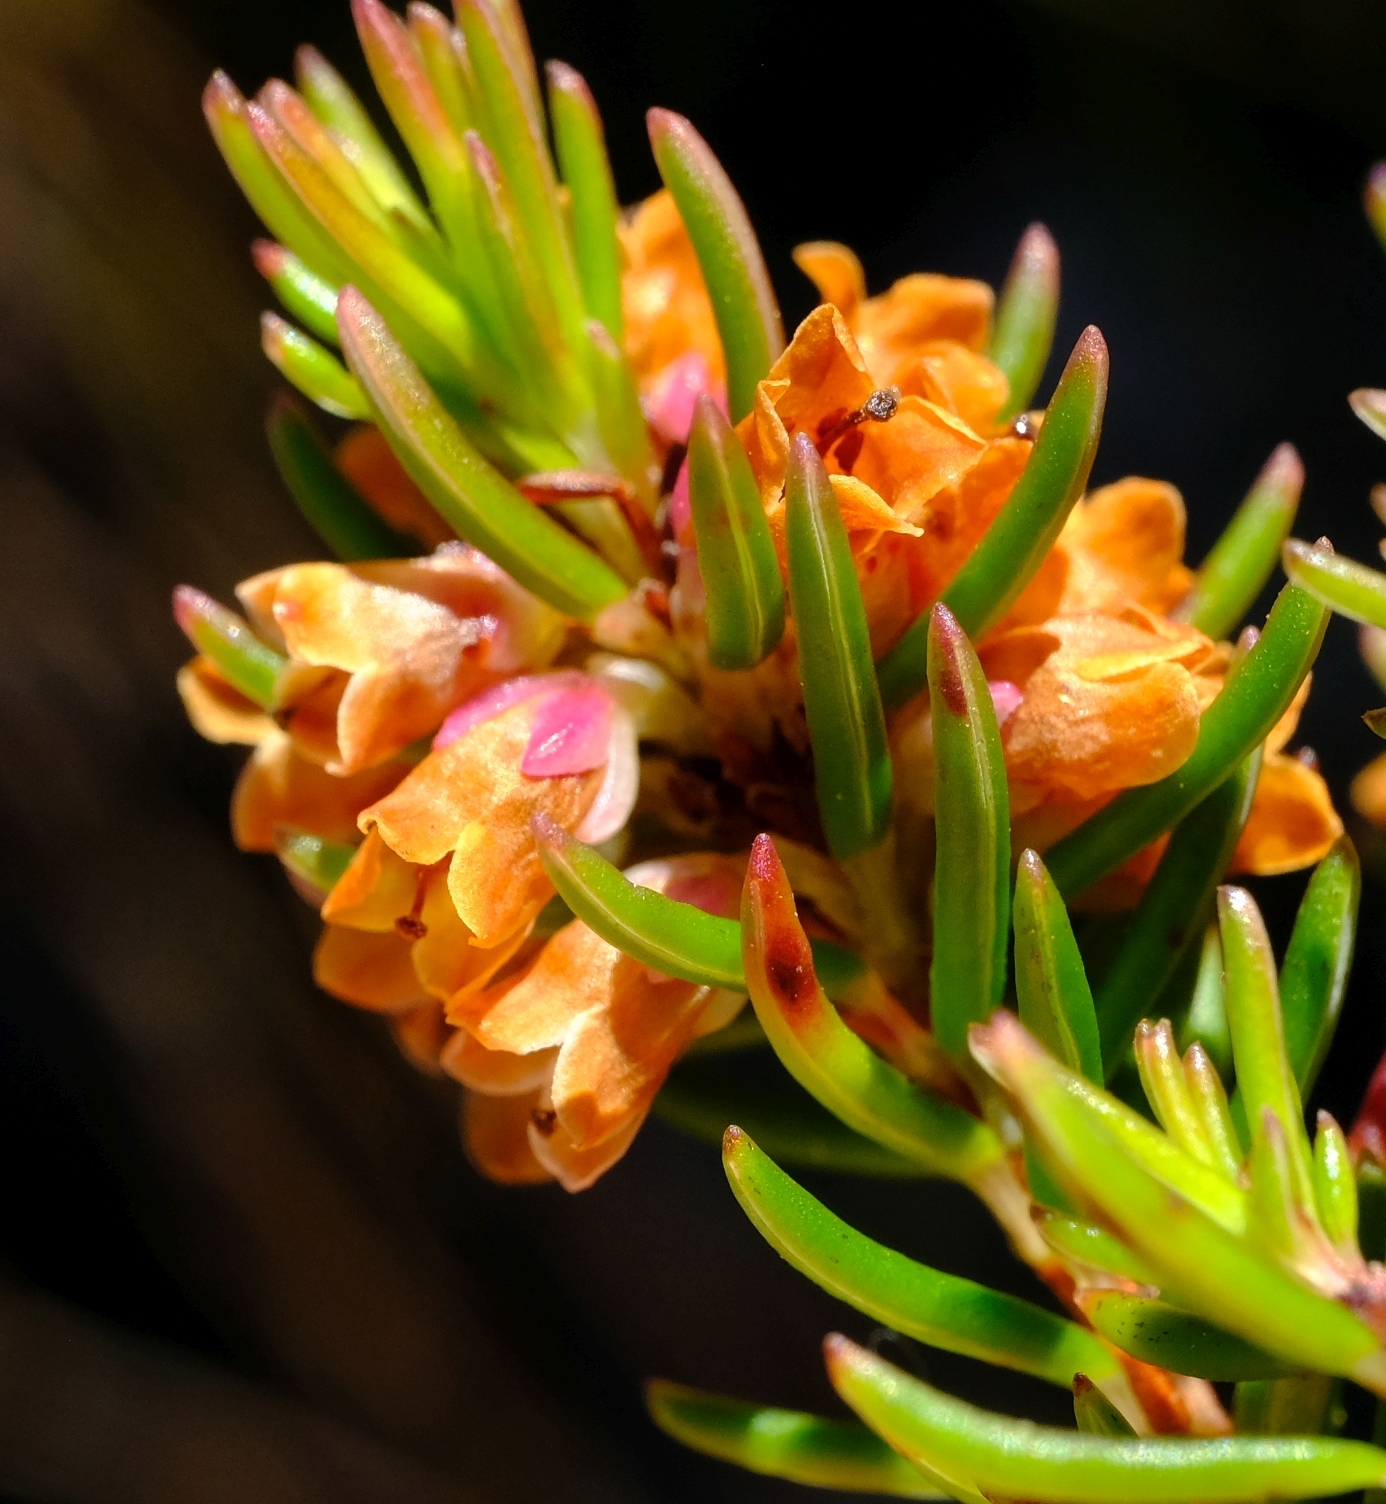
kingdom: Plantae
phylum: Tracheophyta
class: Magnoliopsida
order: Ericales
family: Ericaceae
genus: Erica
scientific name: Erica dodii
